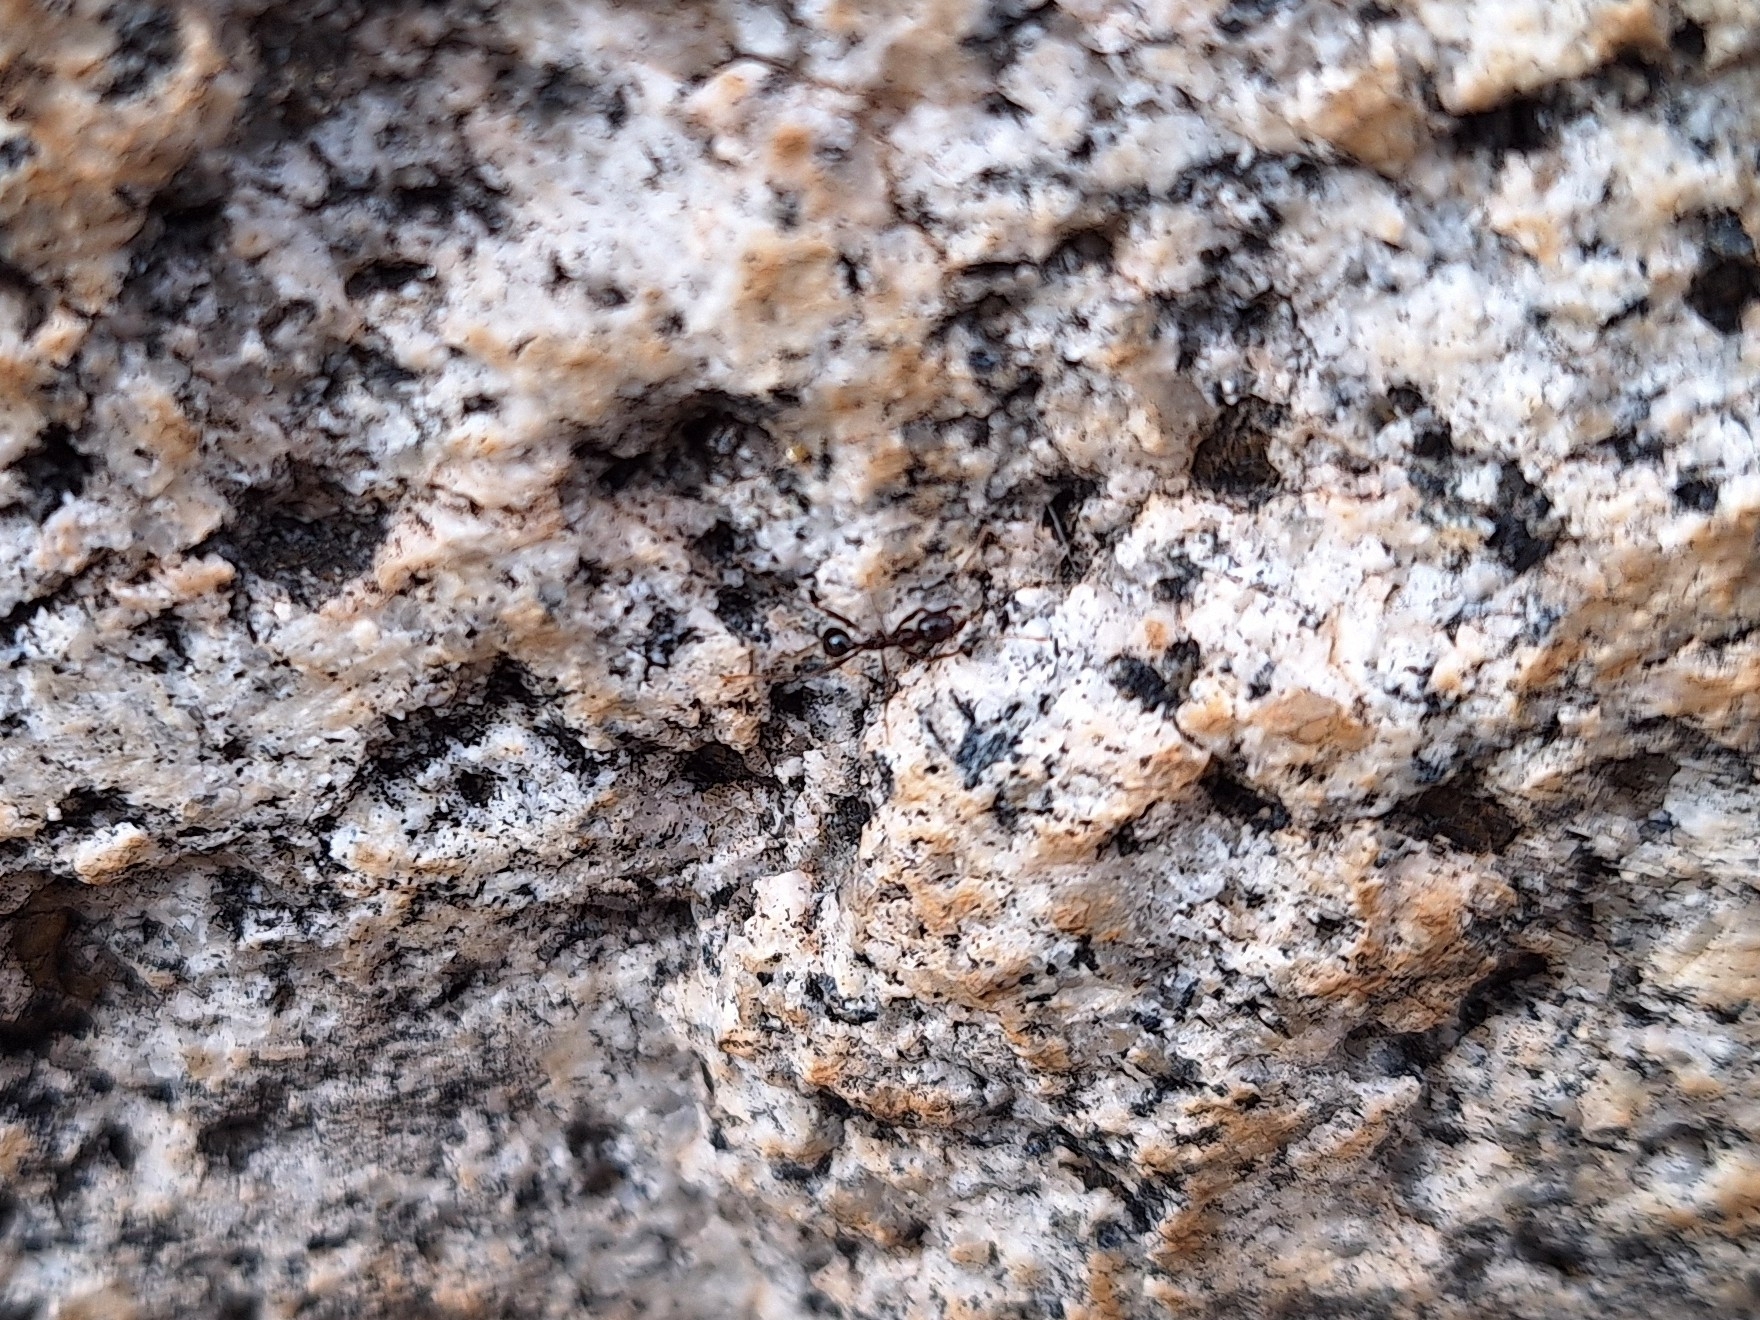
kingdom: Animalia
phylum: Arthropoda
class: Insecta
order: Hymenoptera
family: Formicidae
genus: Pheidole
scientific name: Pheidole rhea
